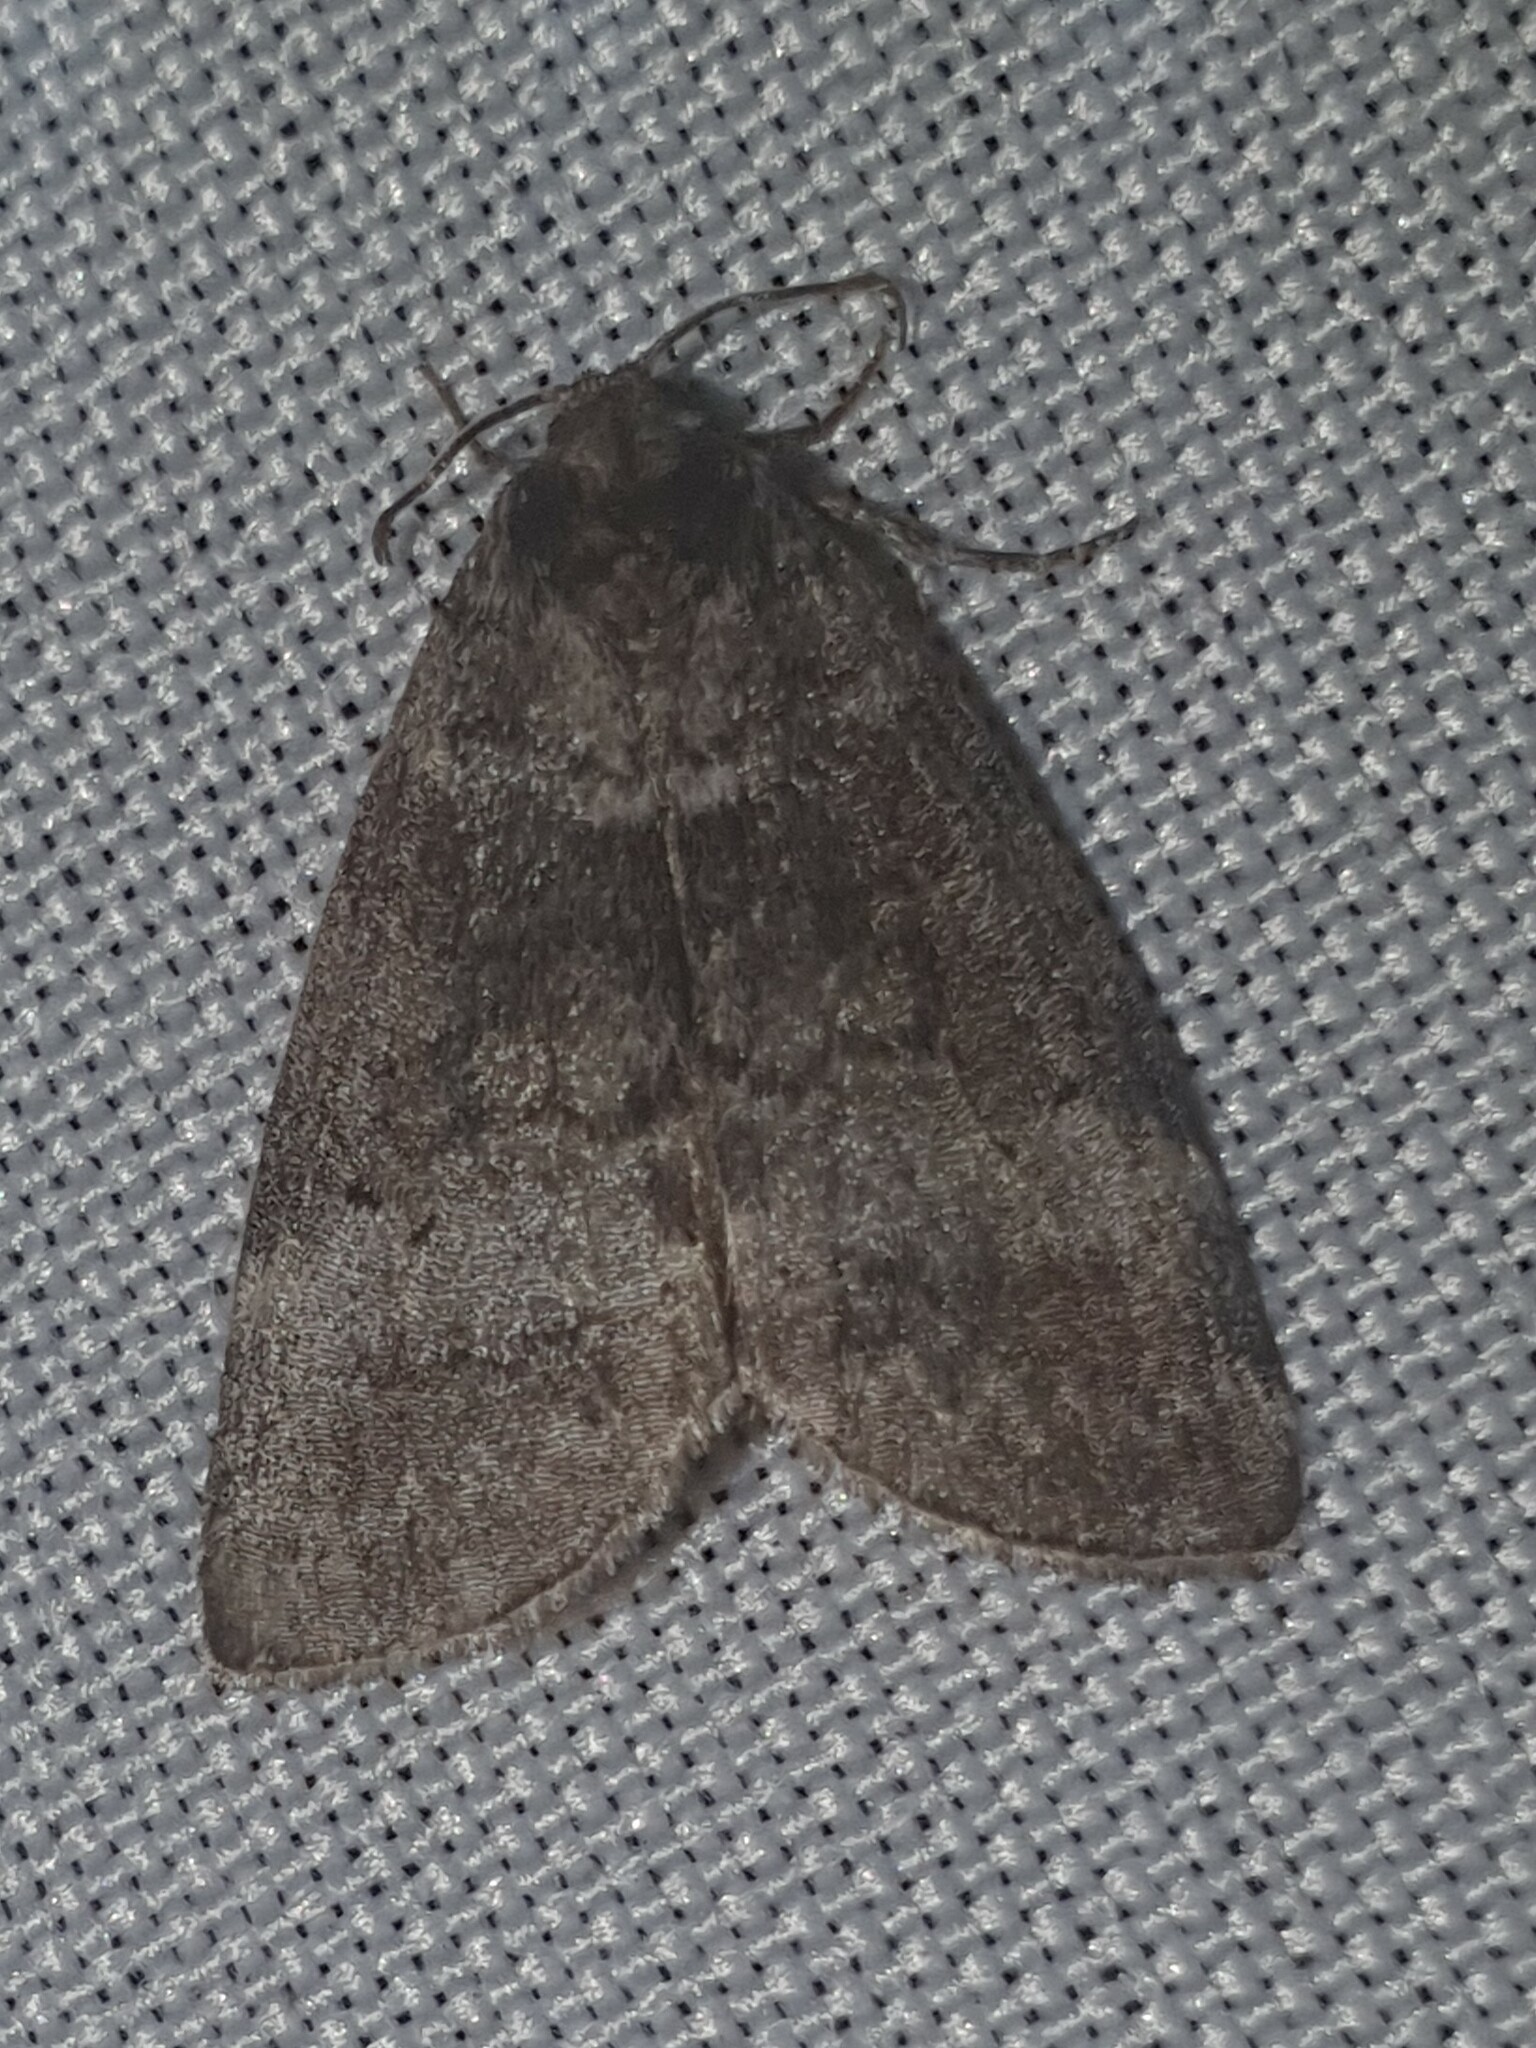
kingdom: Animalia
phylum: Arthropoda
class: Insecta
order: Lepidoptera
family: Drepanidae
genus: Ochropacha
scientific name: Ochropacha duplaris
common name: Common lutestring
